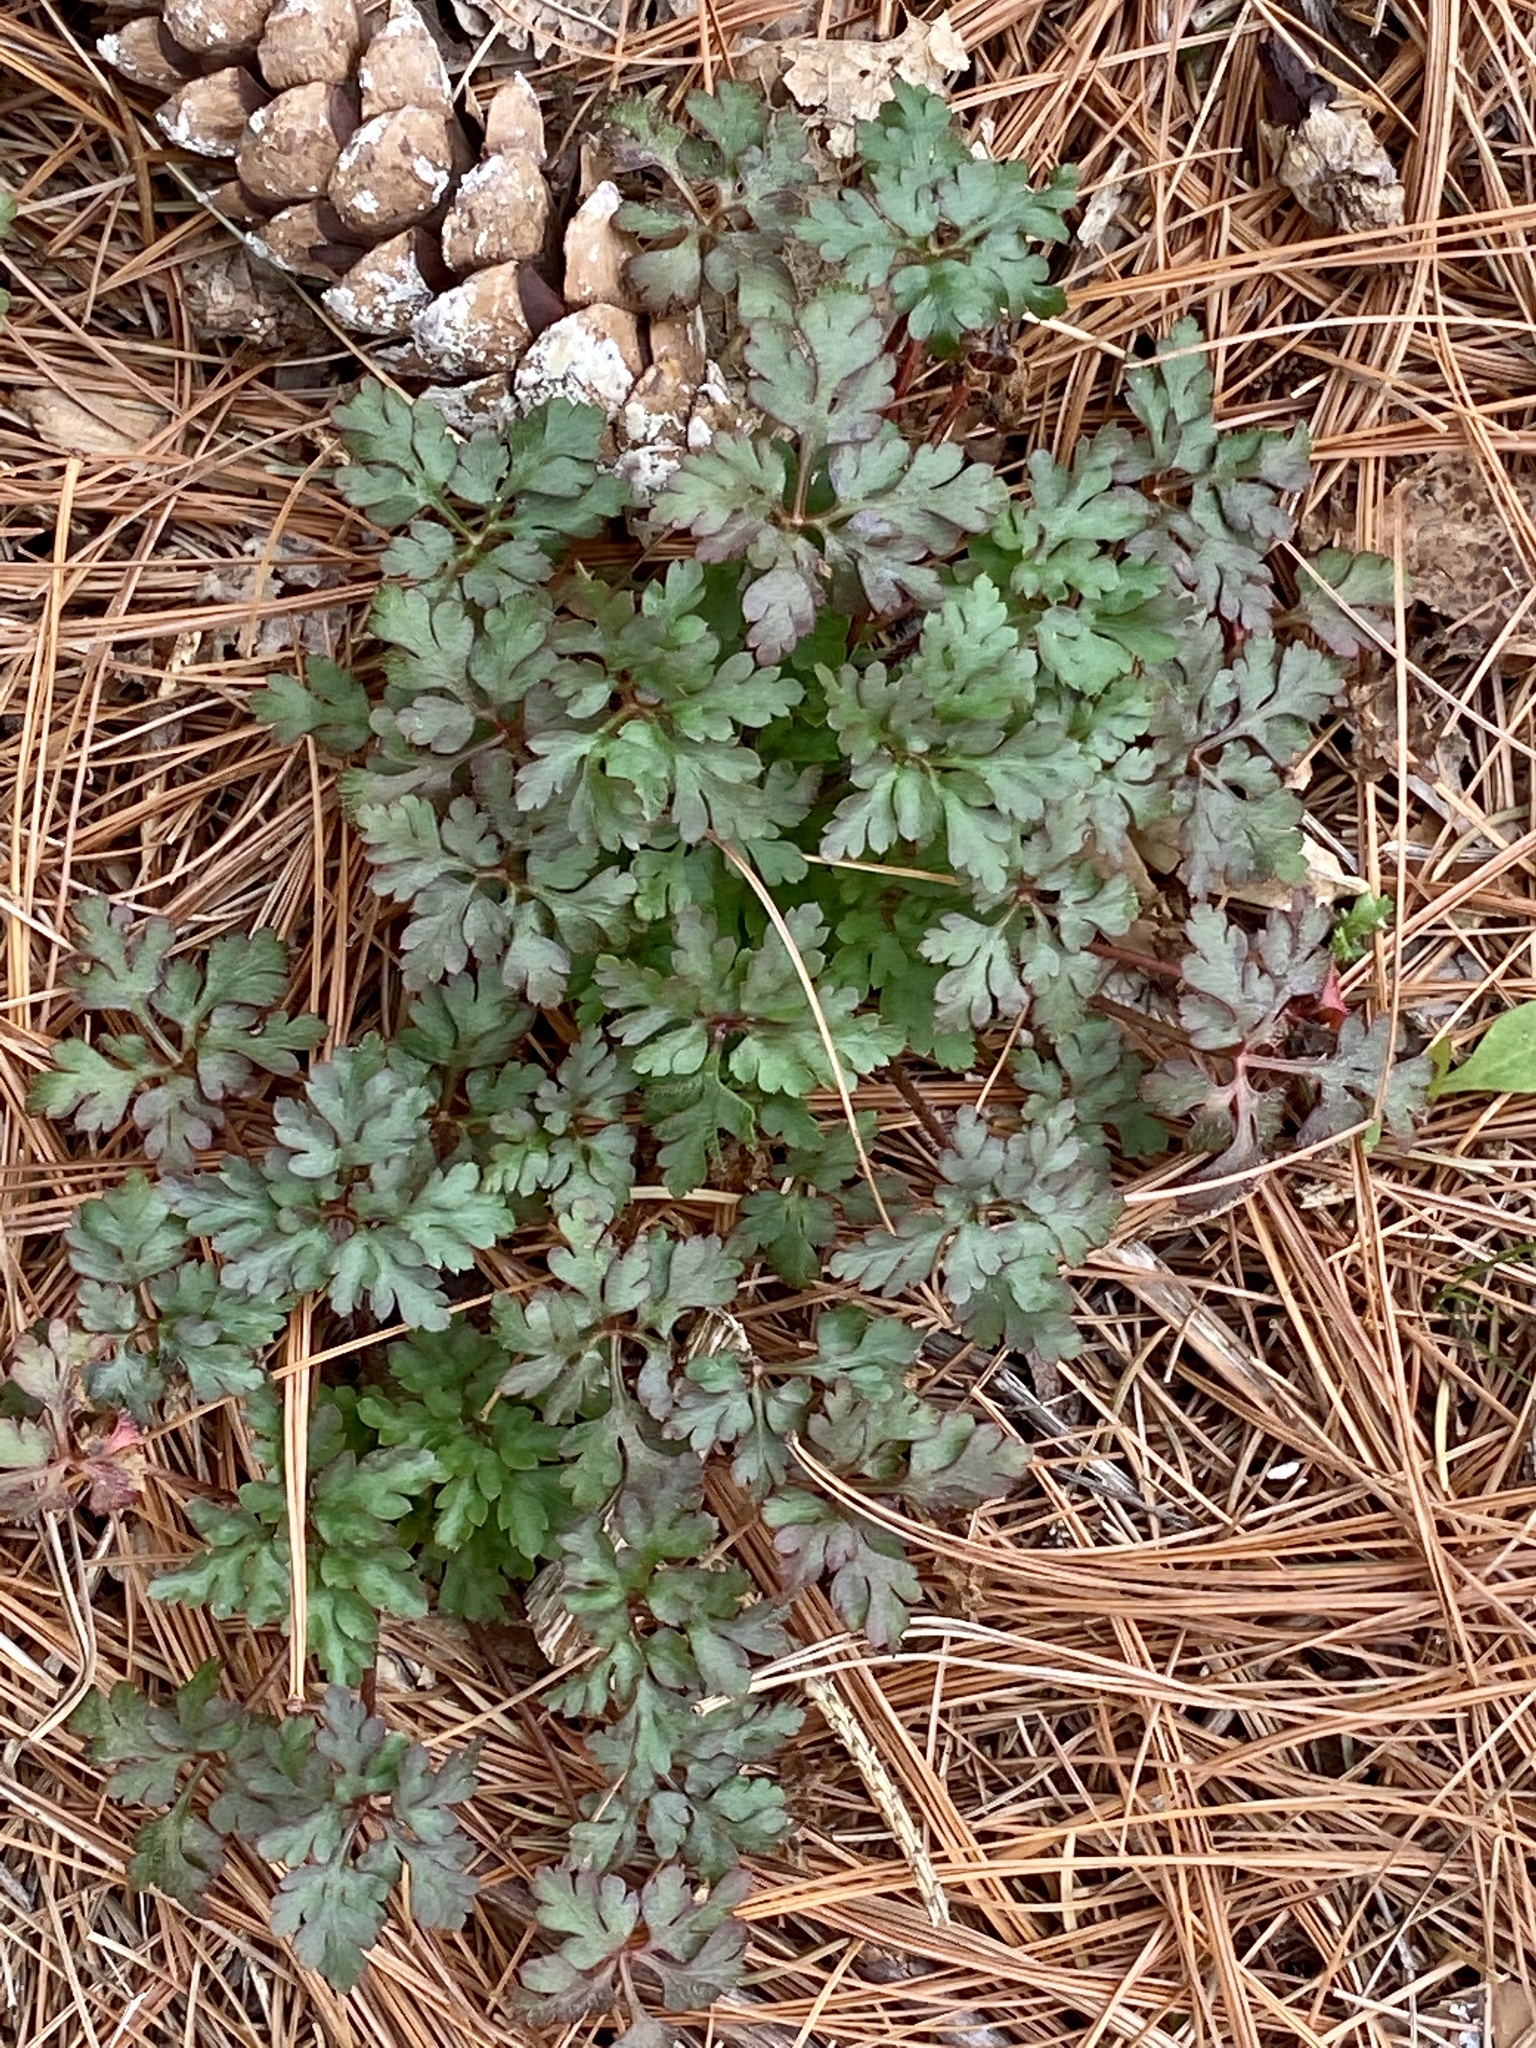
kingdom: Plantae
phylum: Tracheophyta
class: Magnoliopsida
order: Geraniales
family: Geraniaceae
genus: Geranium
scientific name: Geranium robertianum
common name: Herb-robert
